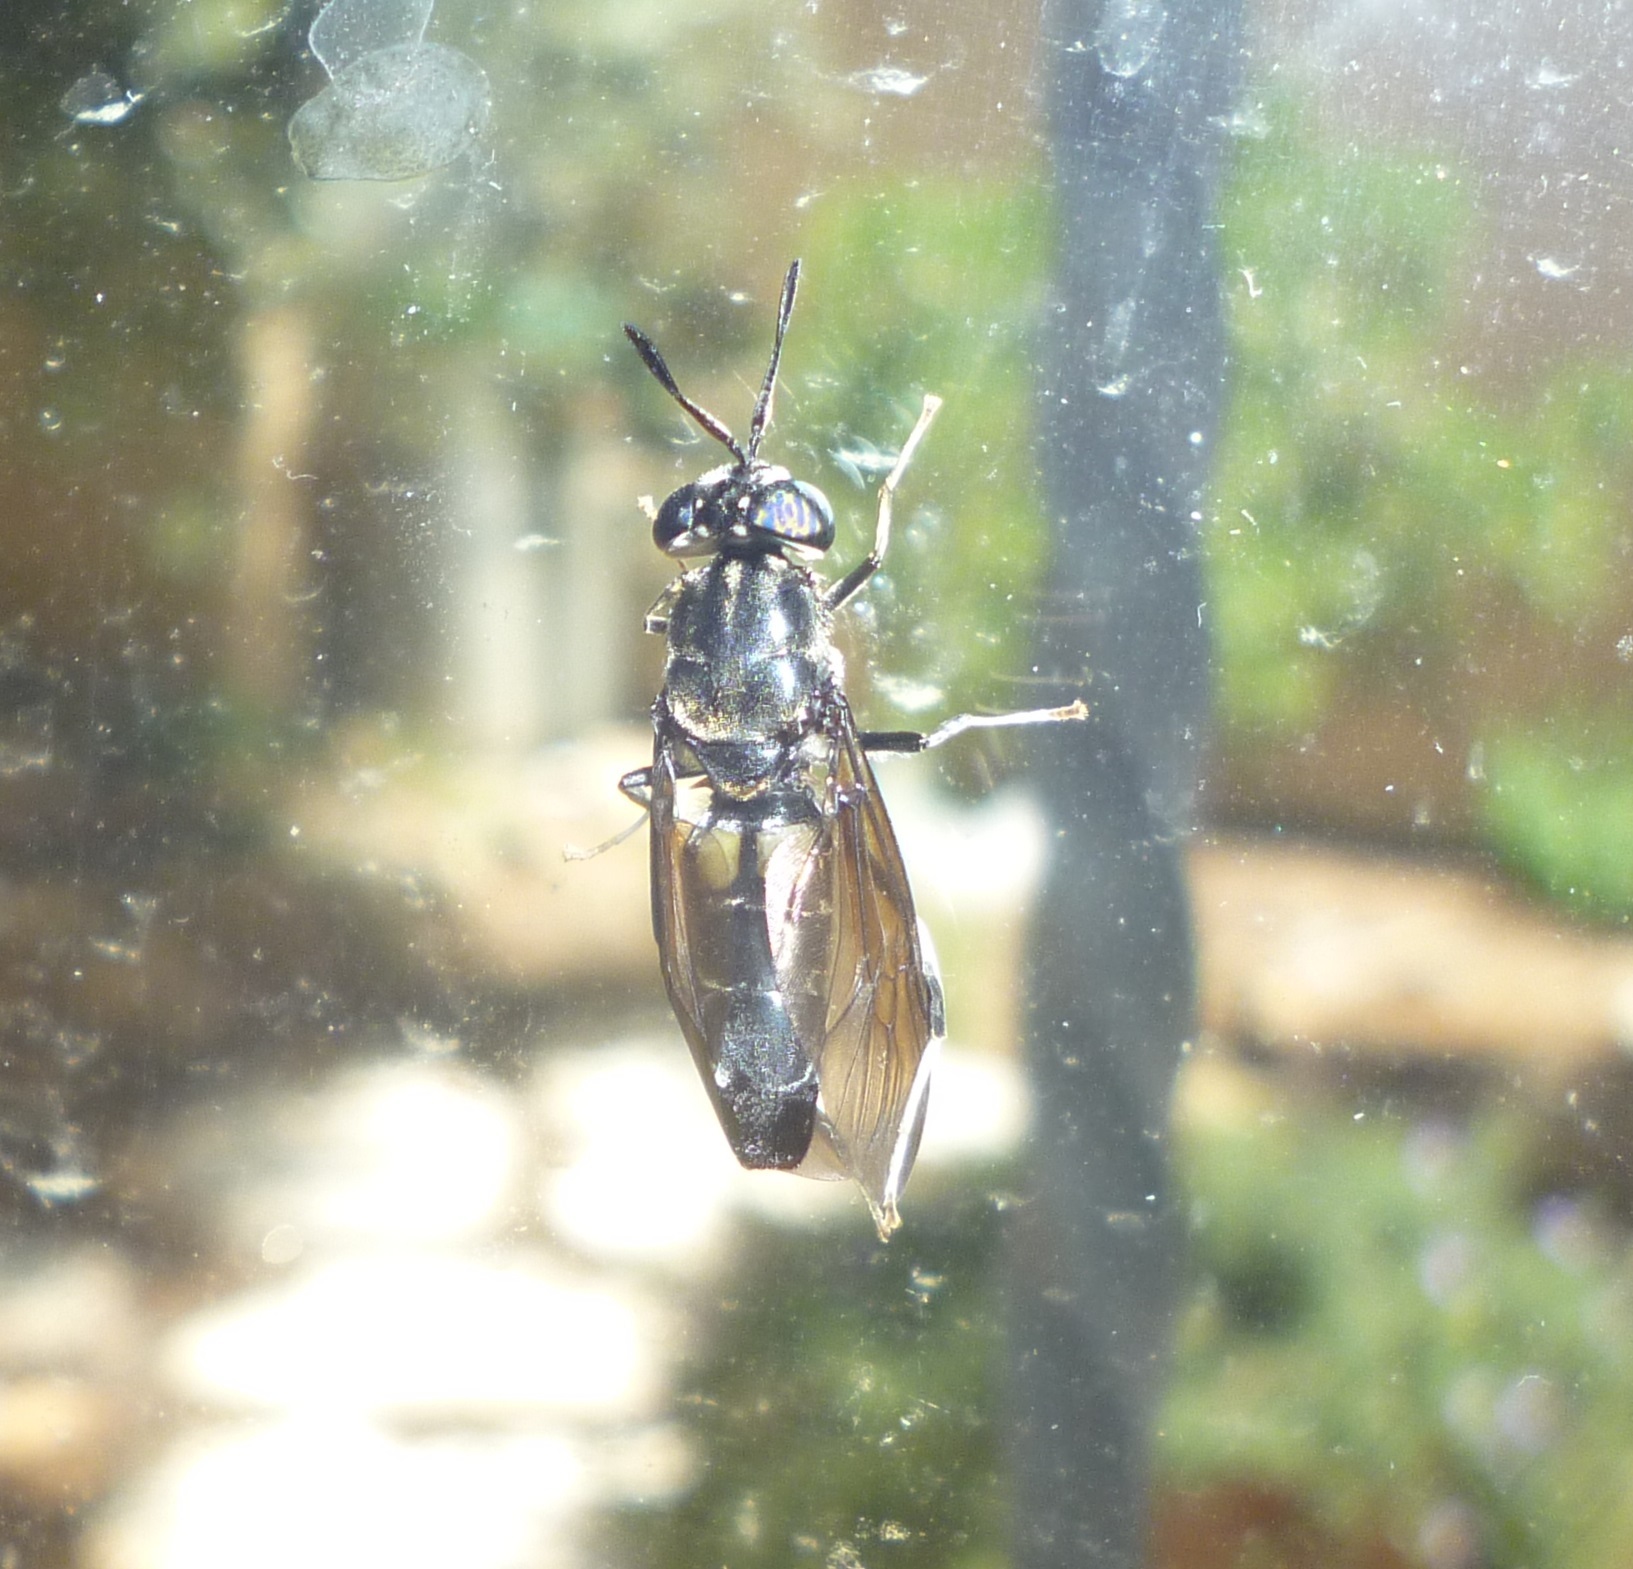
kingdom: Animalia
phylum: Arthropoda
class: Insecta
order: Diptera
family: Stratiomyidae
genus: Hermetia
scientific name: Hermetia illucens
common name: Black soldier fly
